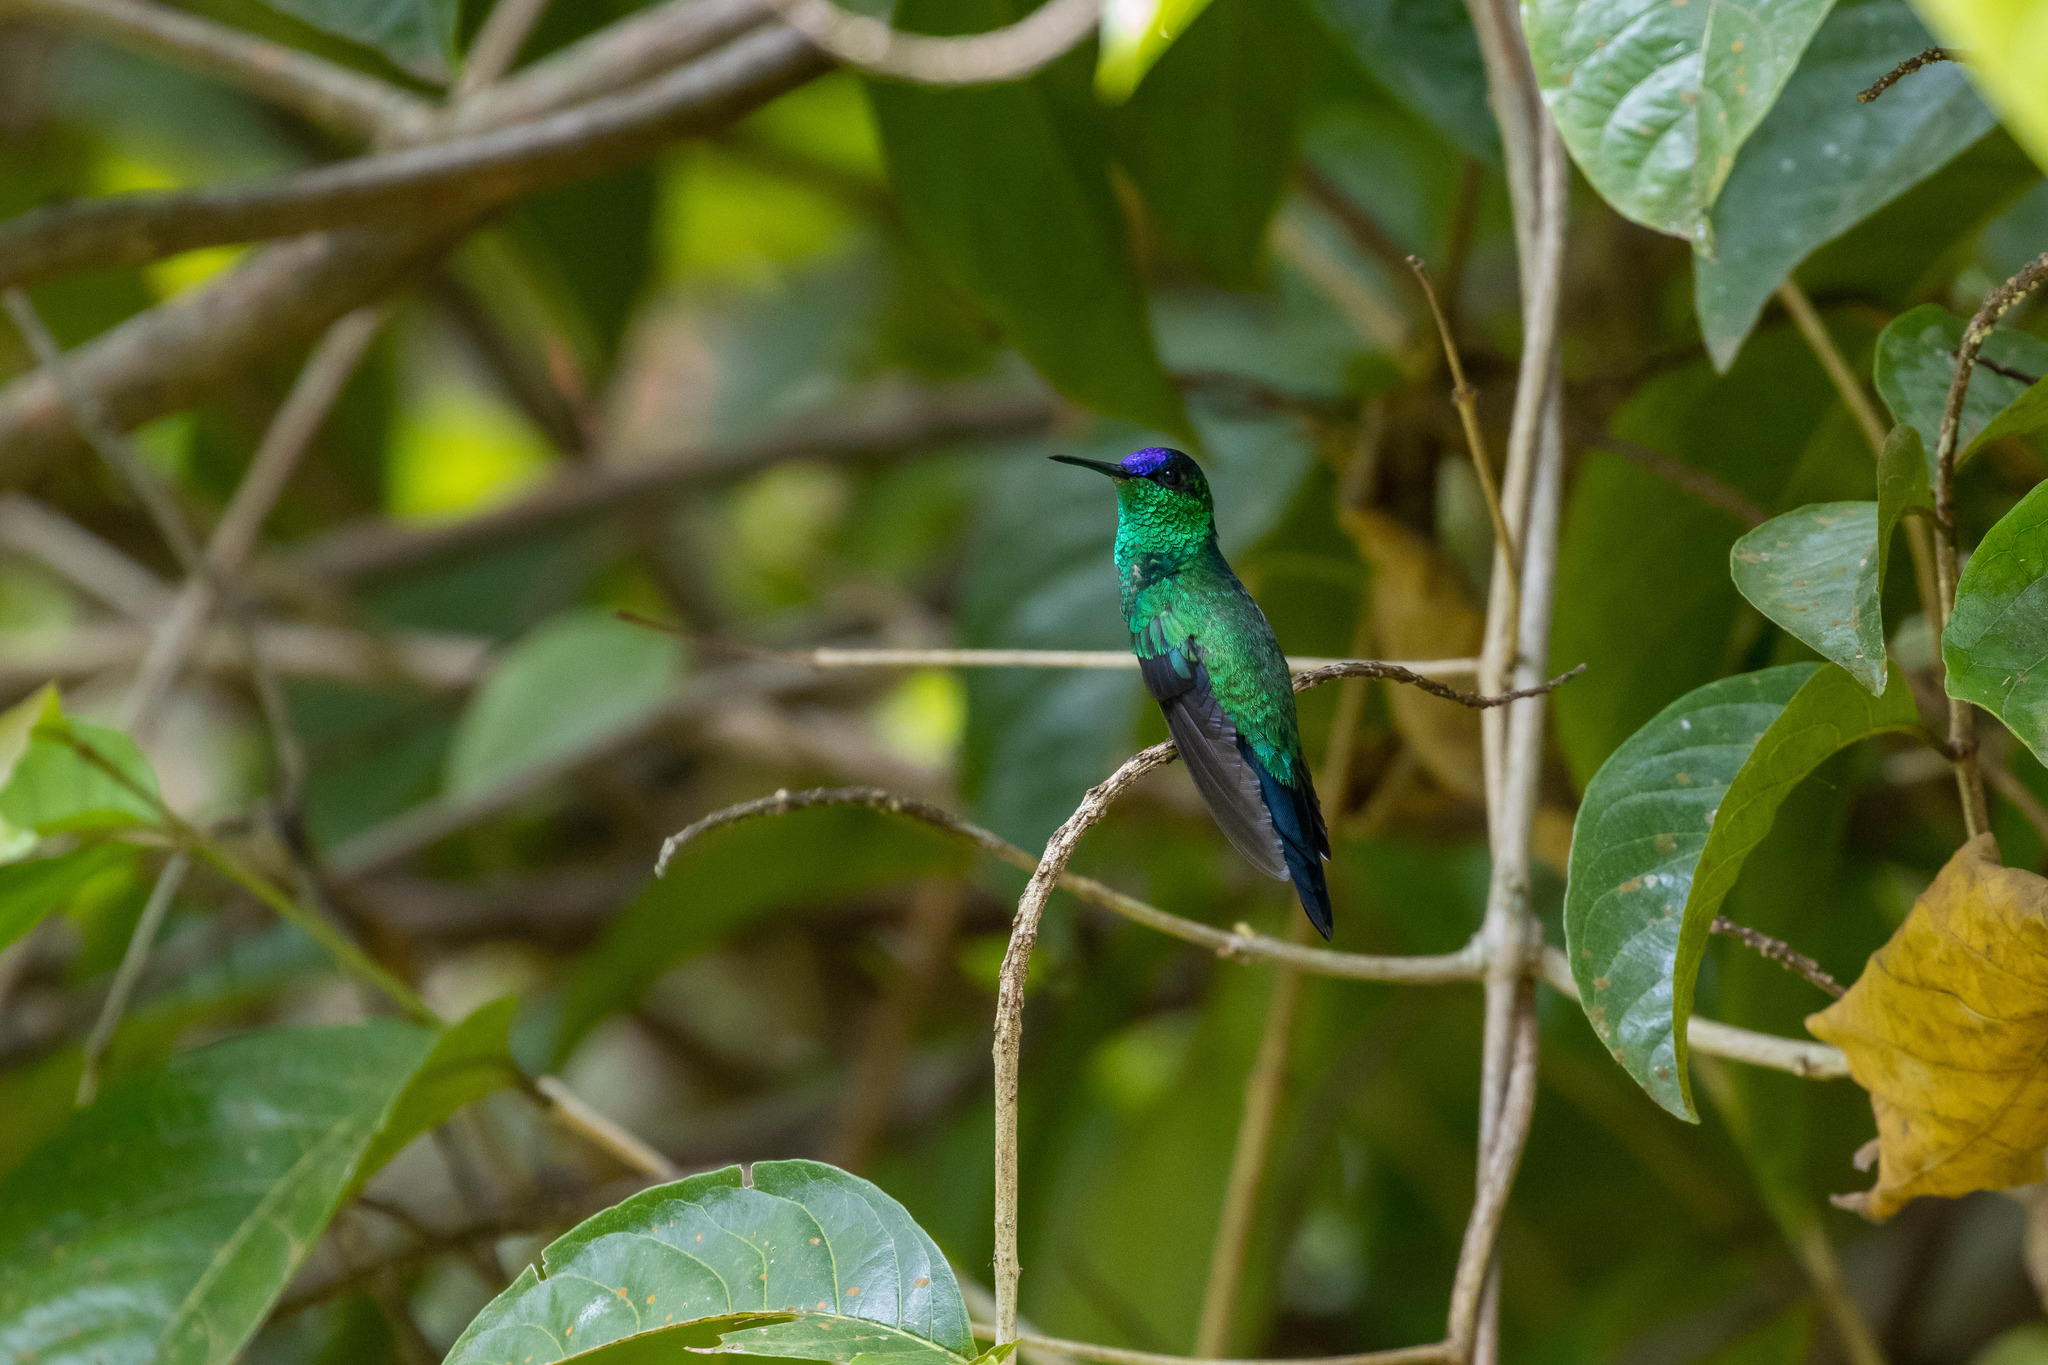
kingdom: Animalia
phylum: Chordata
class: Aves
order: Apodiformes
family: Trochilidae
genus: Thalurania
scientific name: Thalurania glaucopis
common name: Violet-capped woodnymph
